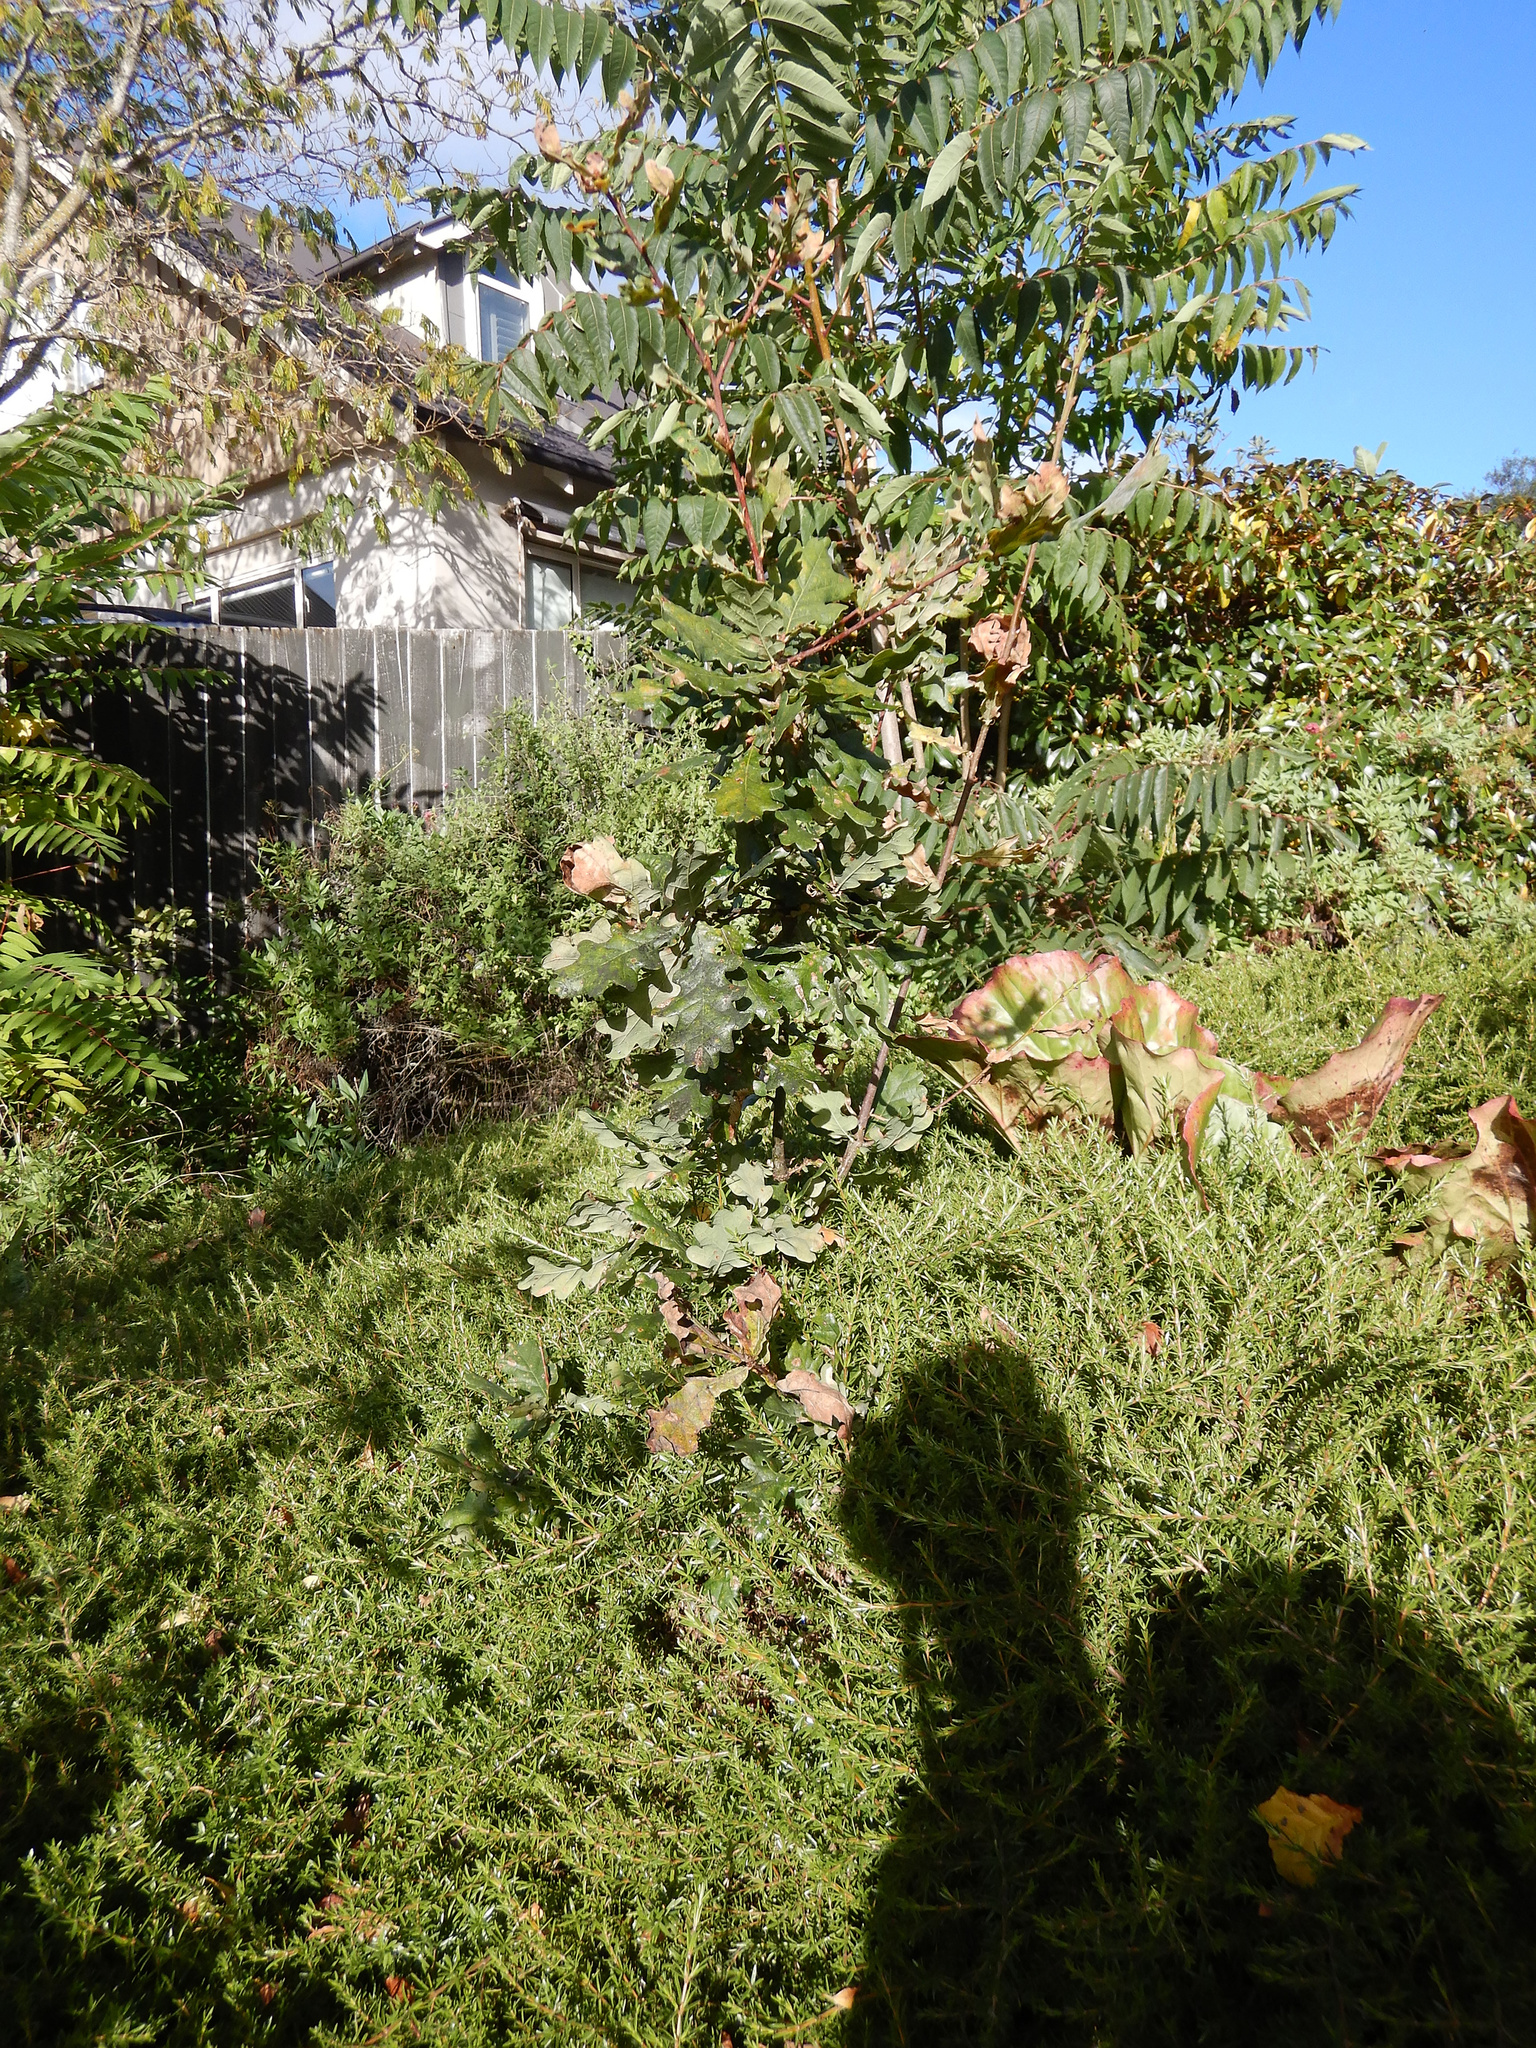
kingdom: Plantae
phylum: Tracheophyta
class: Magnoliopsida
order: Sapindales
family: Simaroubaceae
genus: Ailanthus
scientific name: Ailanthus altissima
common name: Tree-of-heaven
